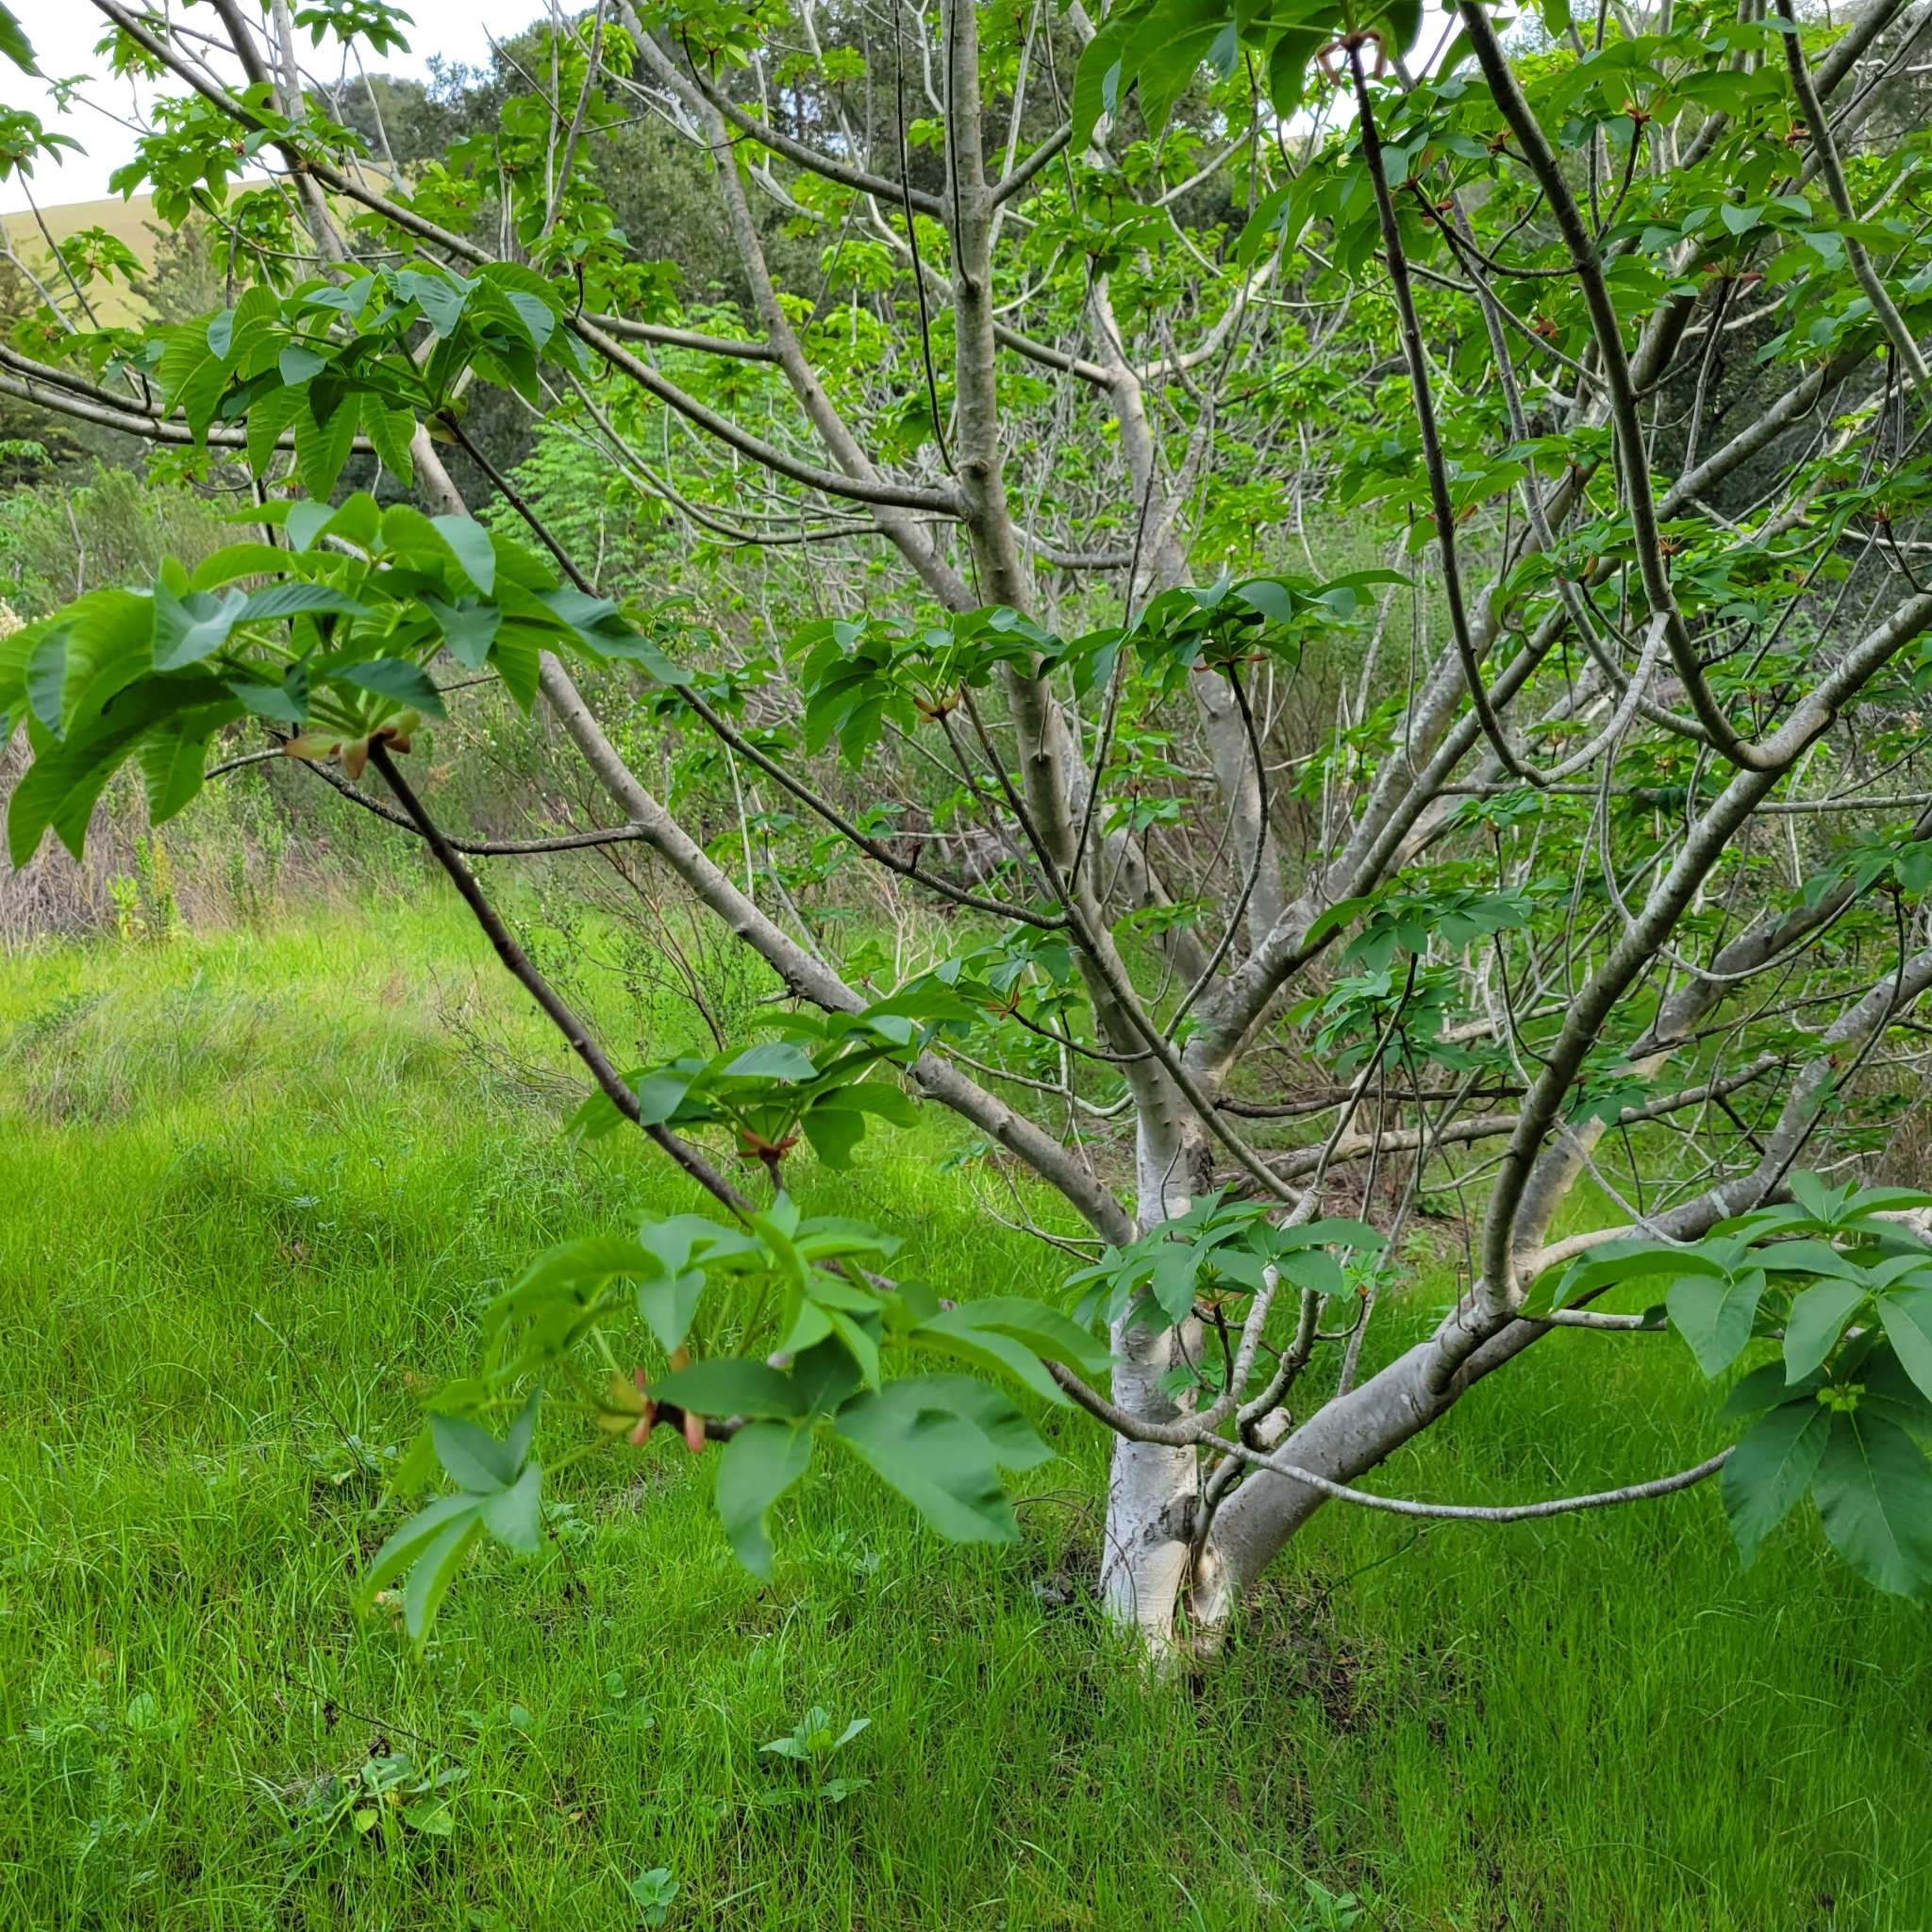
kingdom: Plantae
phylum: Tracheophyta
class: Magnoliopsida
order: Sapindales
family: Sapindaceae
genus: Aesculus
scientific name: Aesculus californica
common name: California buckeye
